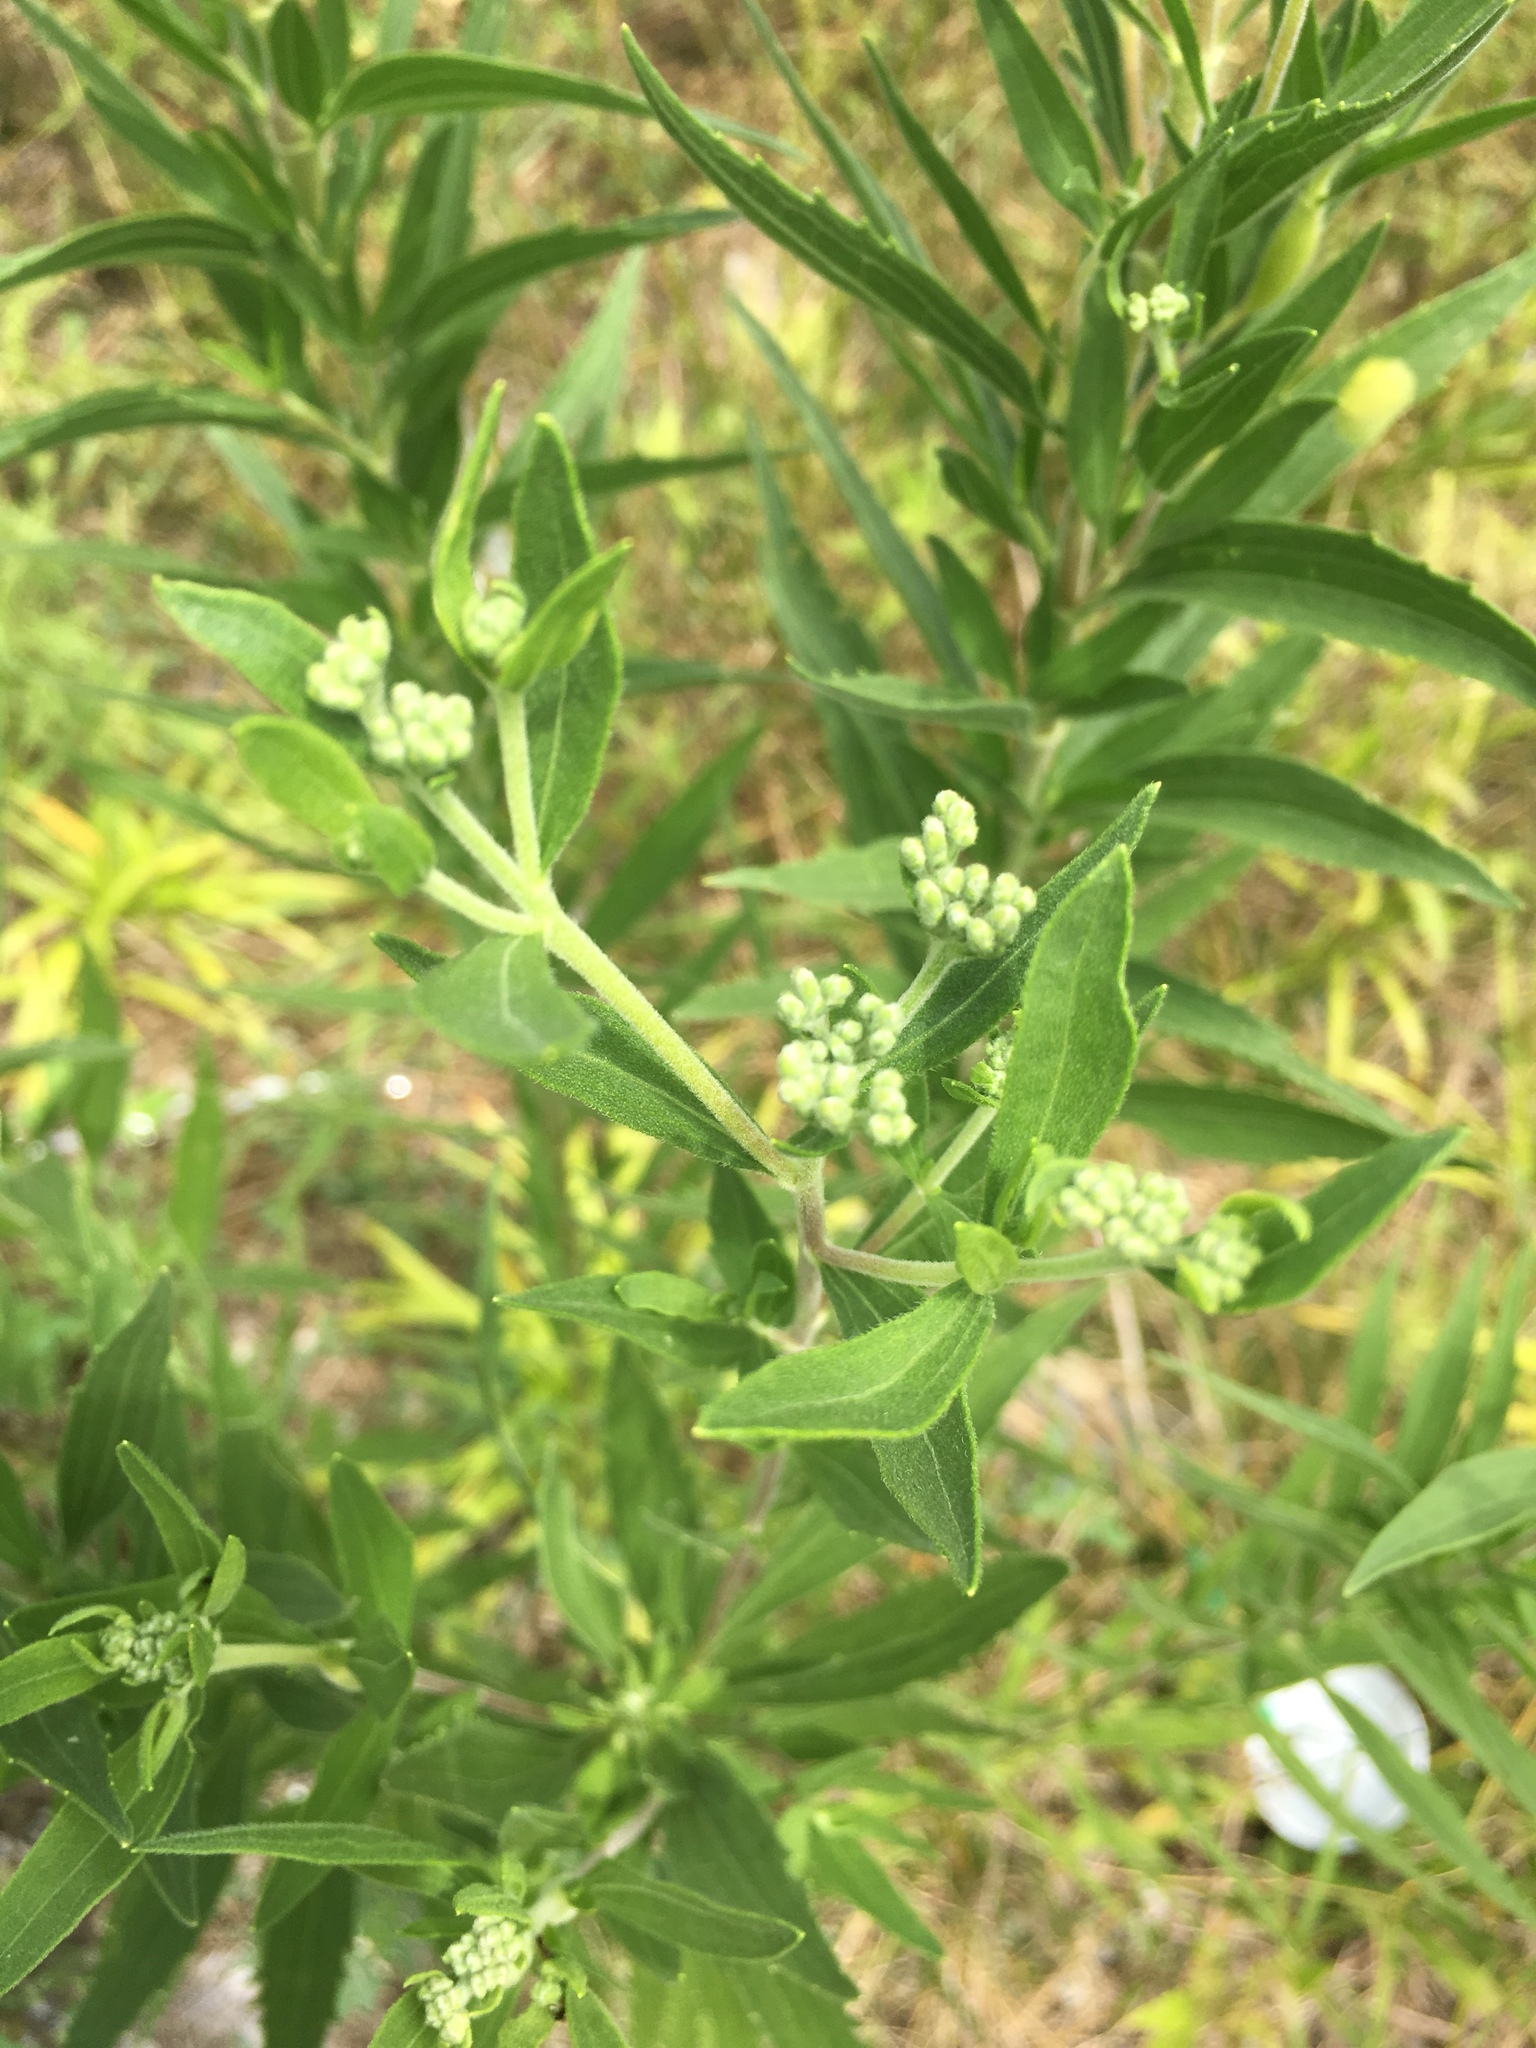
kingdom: Plantae
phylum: Tracheophyta
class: Magnoliopsida
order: Asterales
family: Asteraceae
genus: Eupatorium
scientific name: Eupatorium altissimum
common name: Tall thoroughwort
